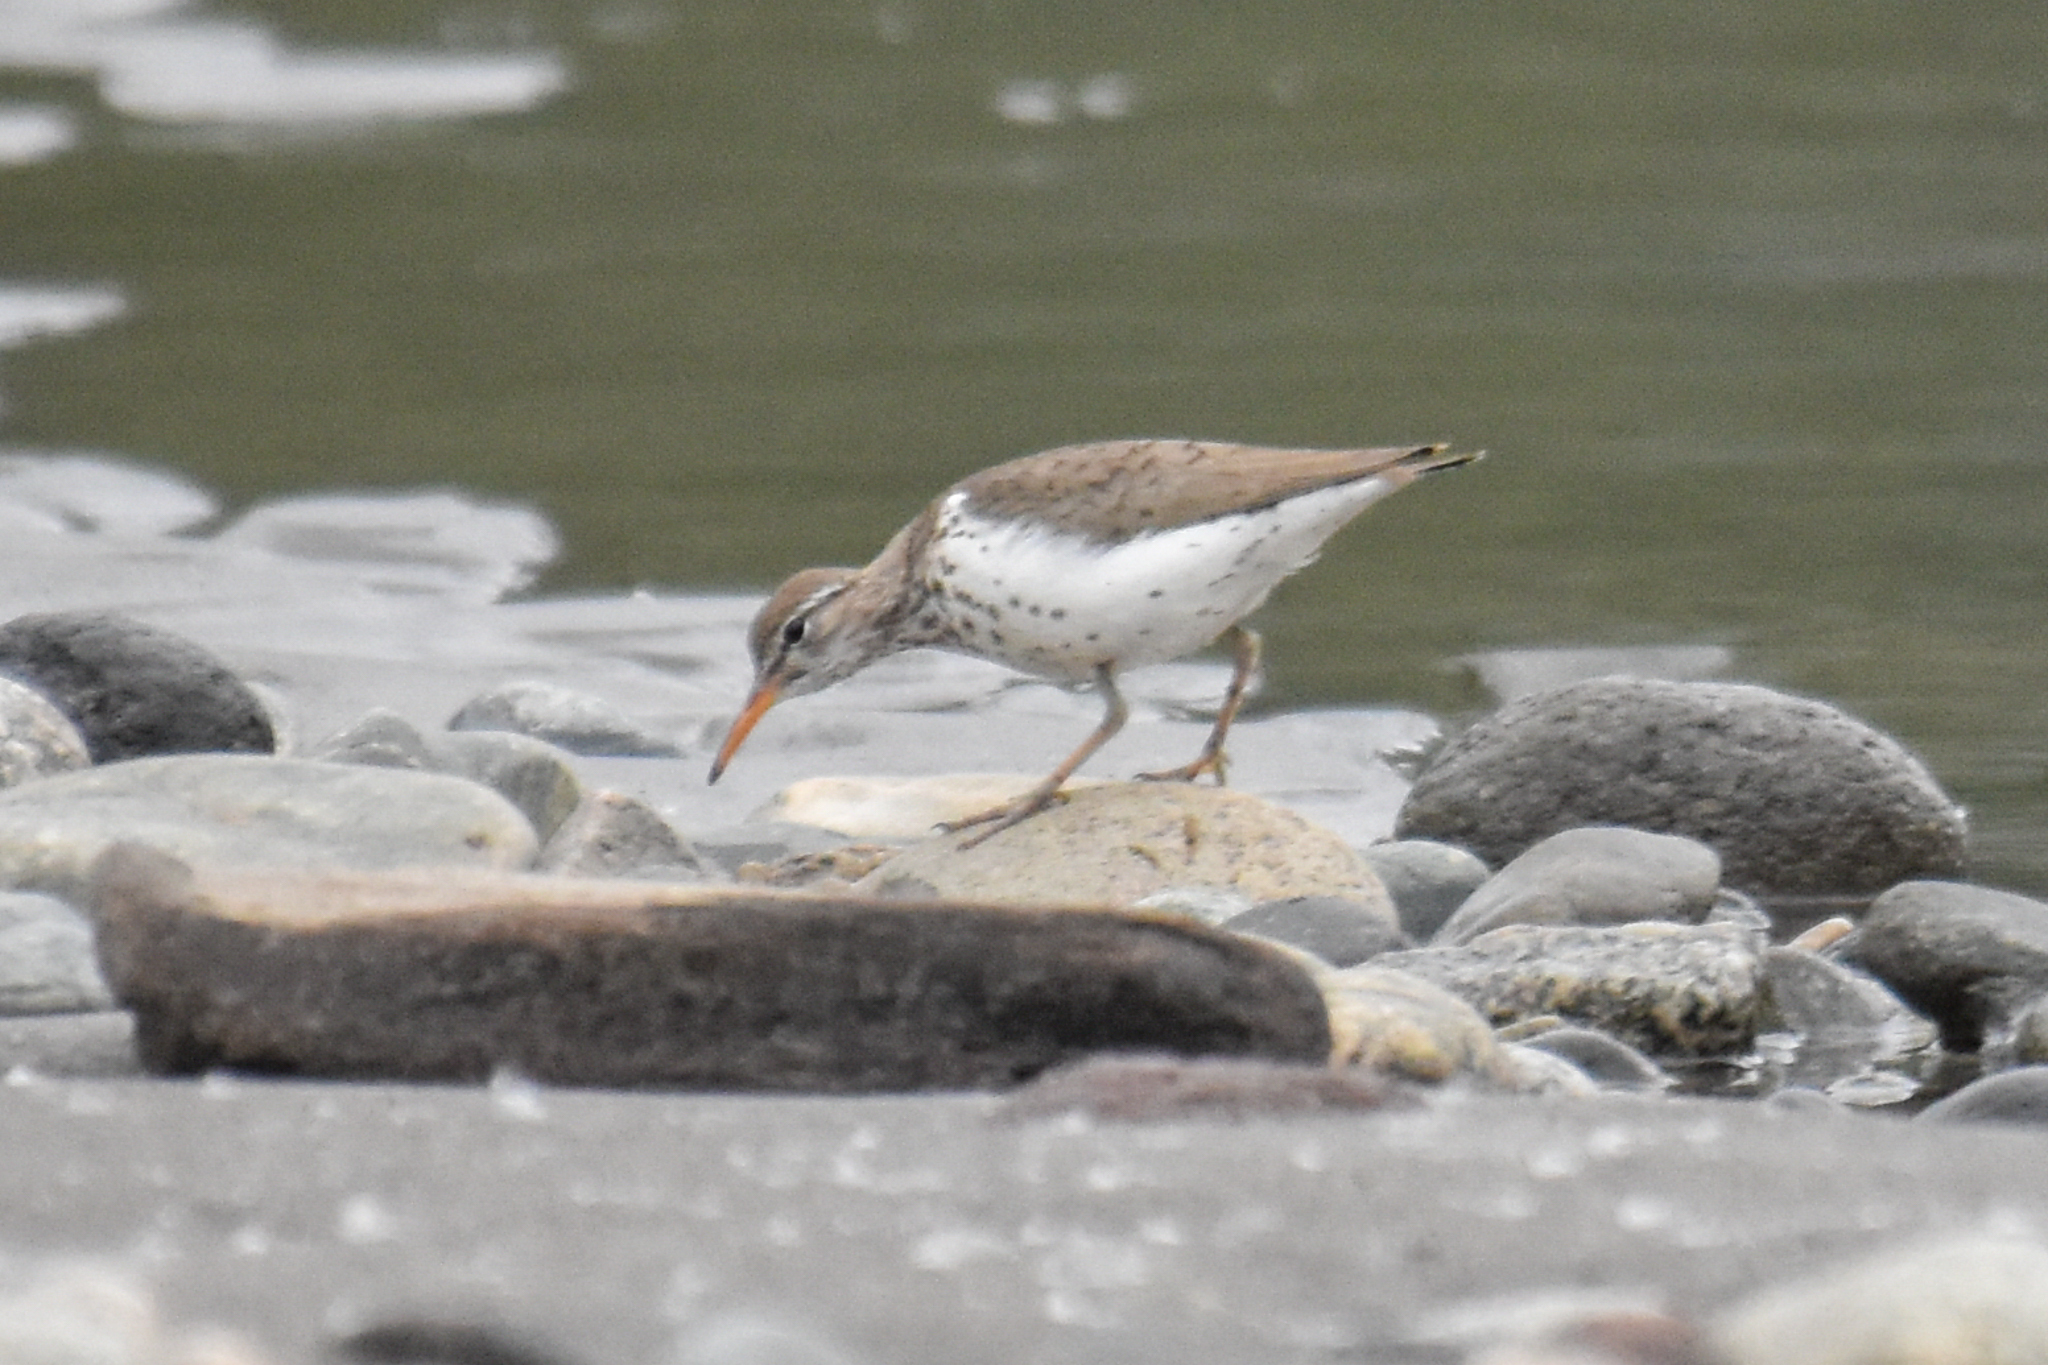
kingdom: Animalia
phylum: Chordata
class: Aves
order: Charadriiformes
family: Scolopacidae
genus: Actitis
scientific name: Actitis macularius
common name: Spotted sandpiper
